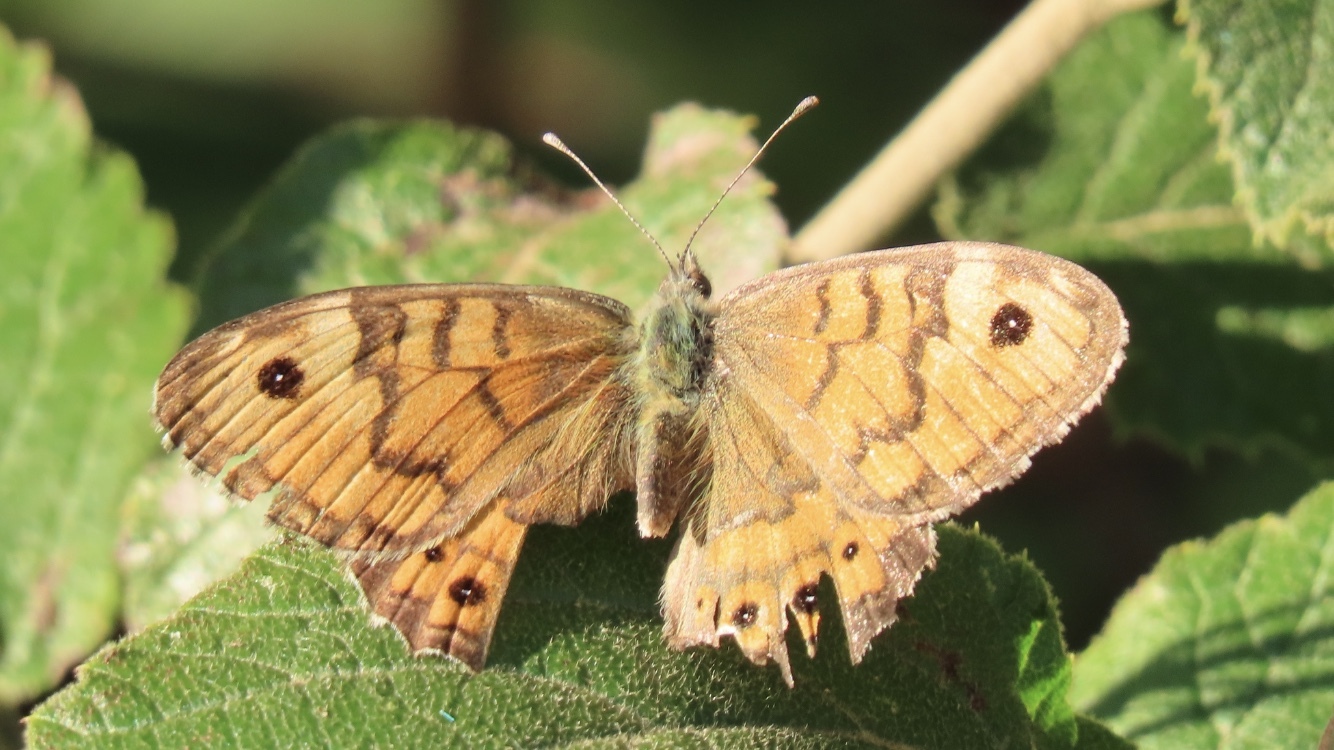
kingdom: Animalia
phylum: Arthropoda
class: Insecta
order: Lepidoptera
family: Nymphalidae
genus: Pararge
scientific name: Pararge Lasiommata megera
